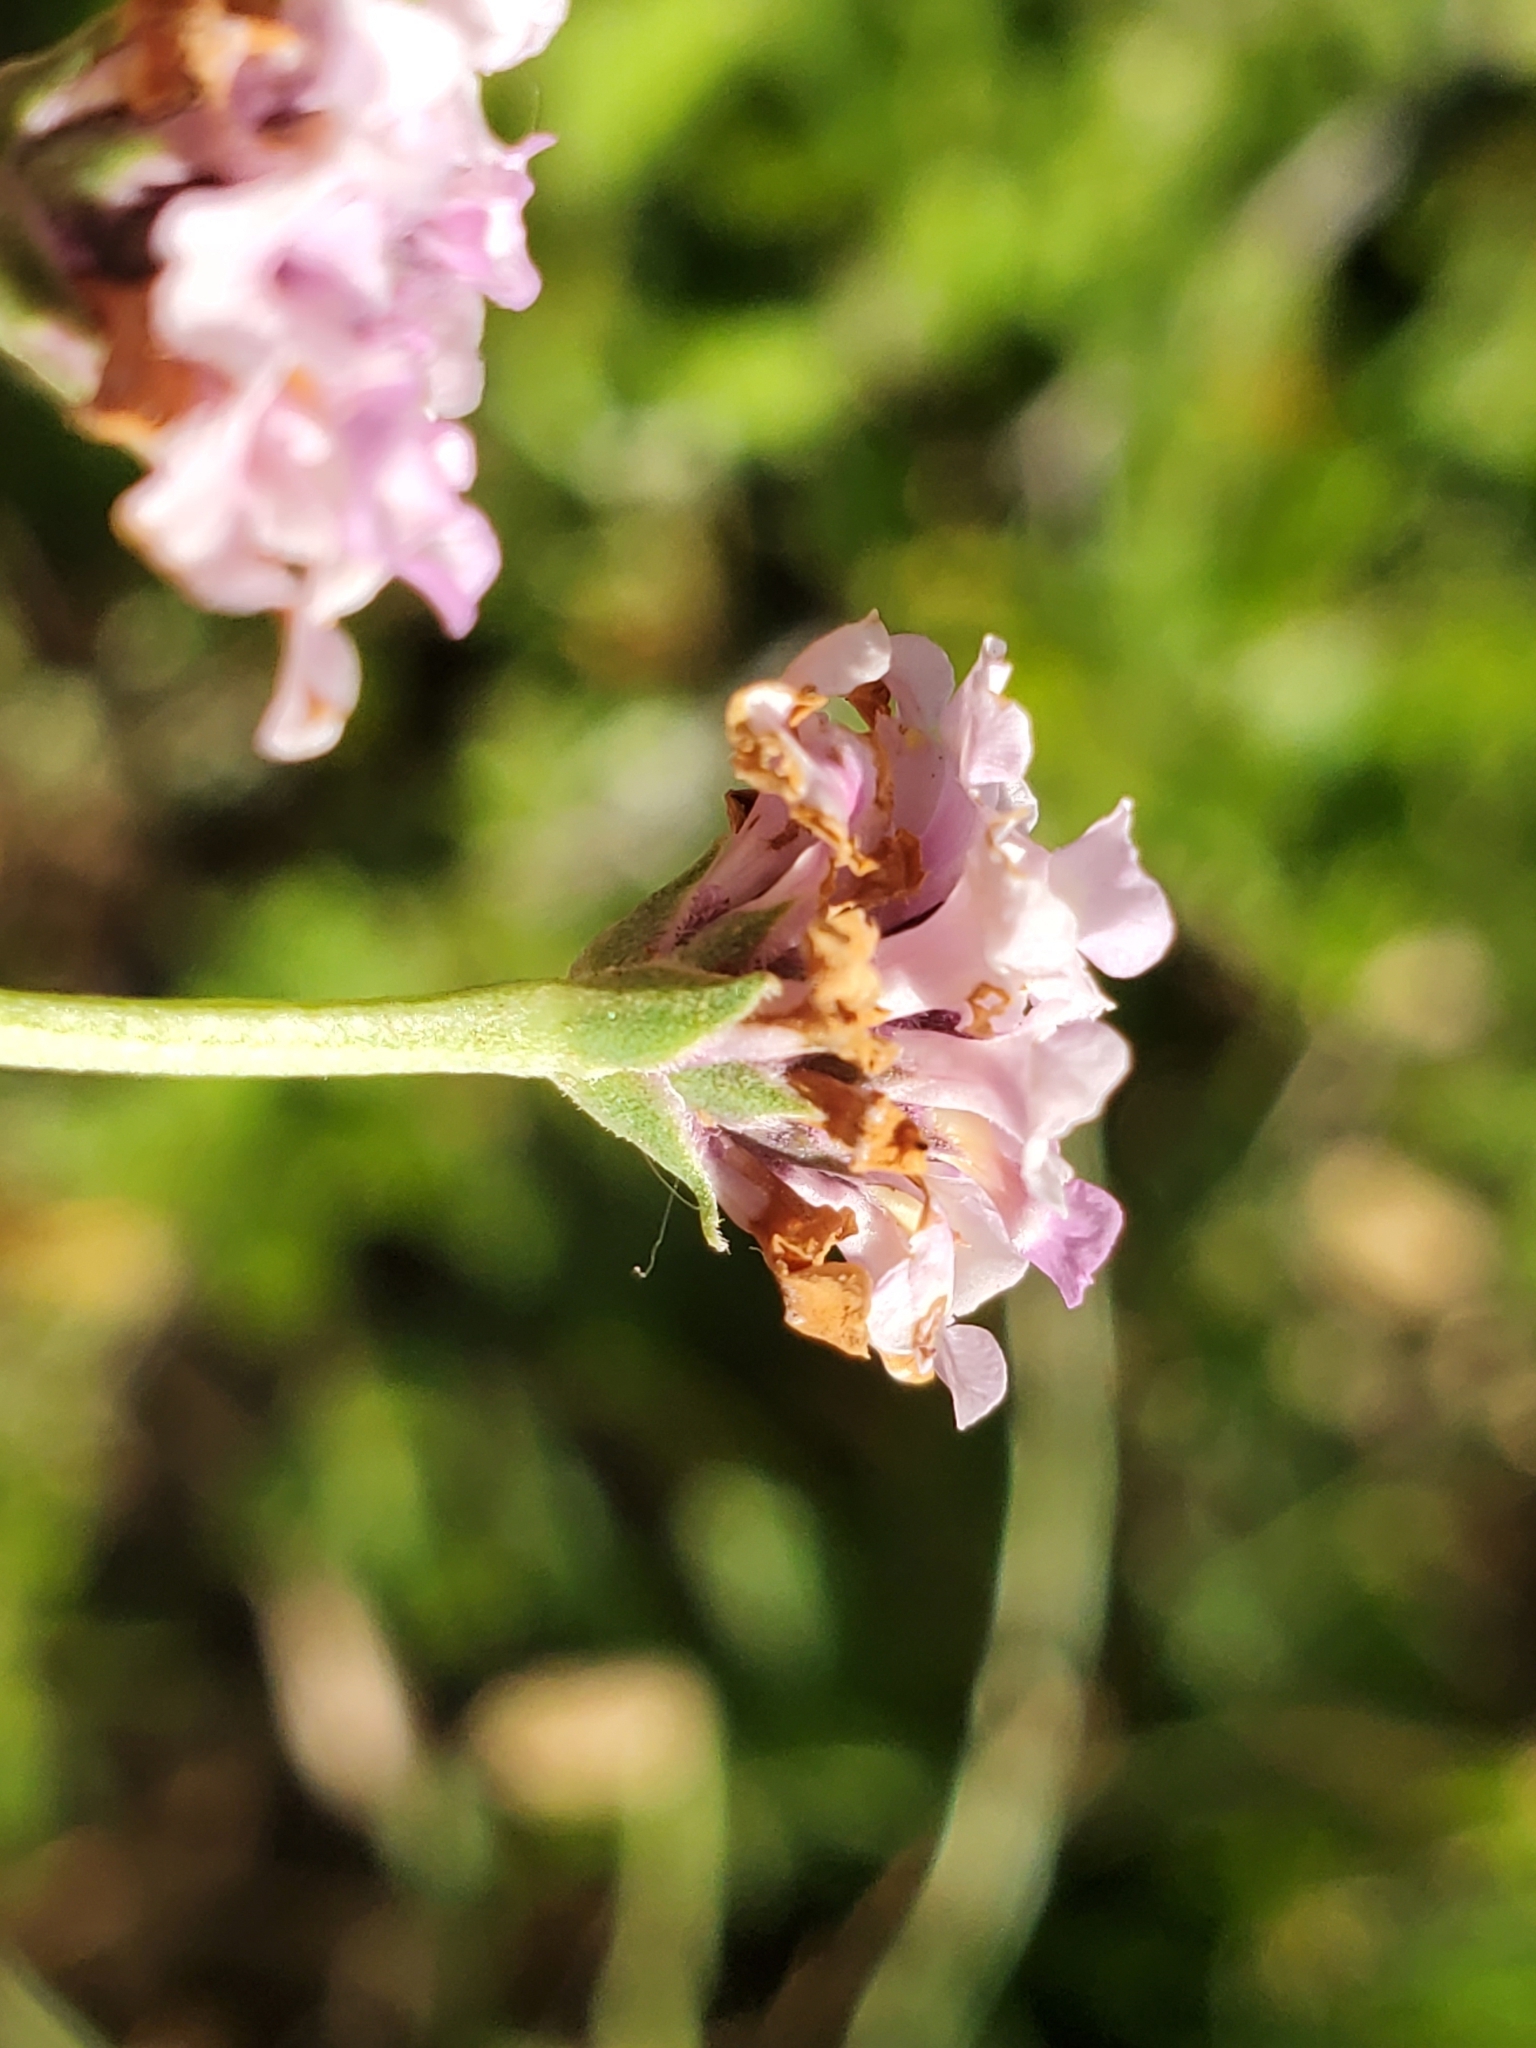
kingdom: Plantae
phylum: Tracheophyta
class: Magnoliopsida
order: Lamiales
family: Verbenaceae
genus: Phyla
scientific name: Phyla nodiflora
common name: Frogfruit
